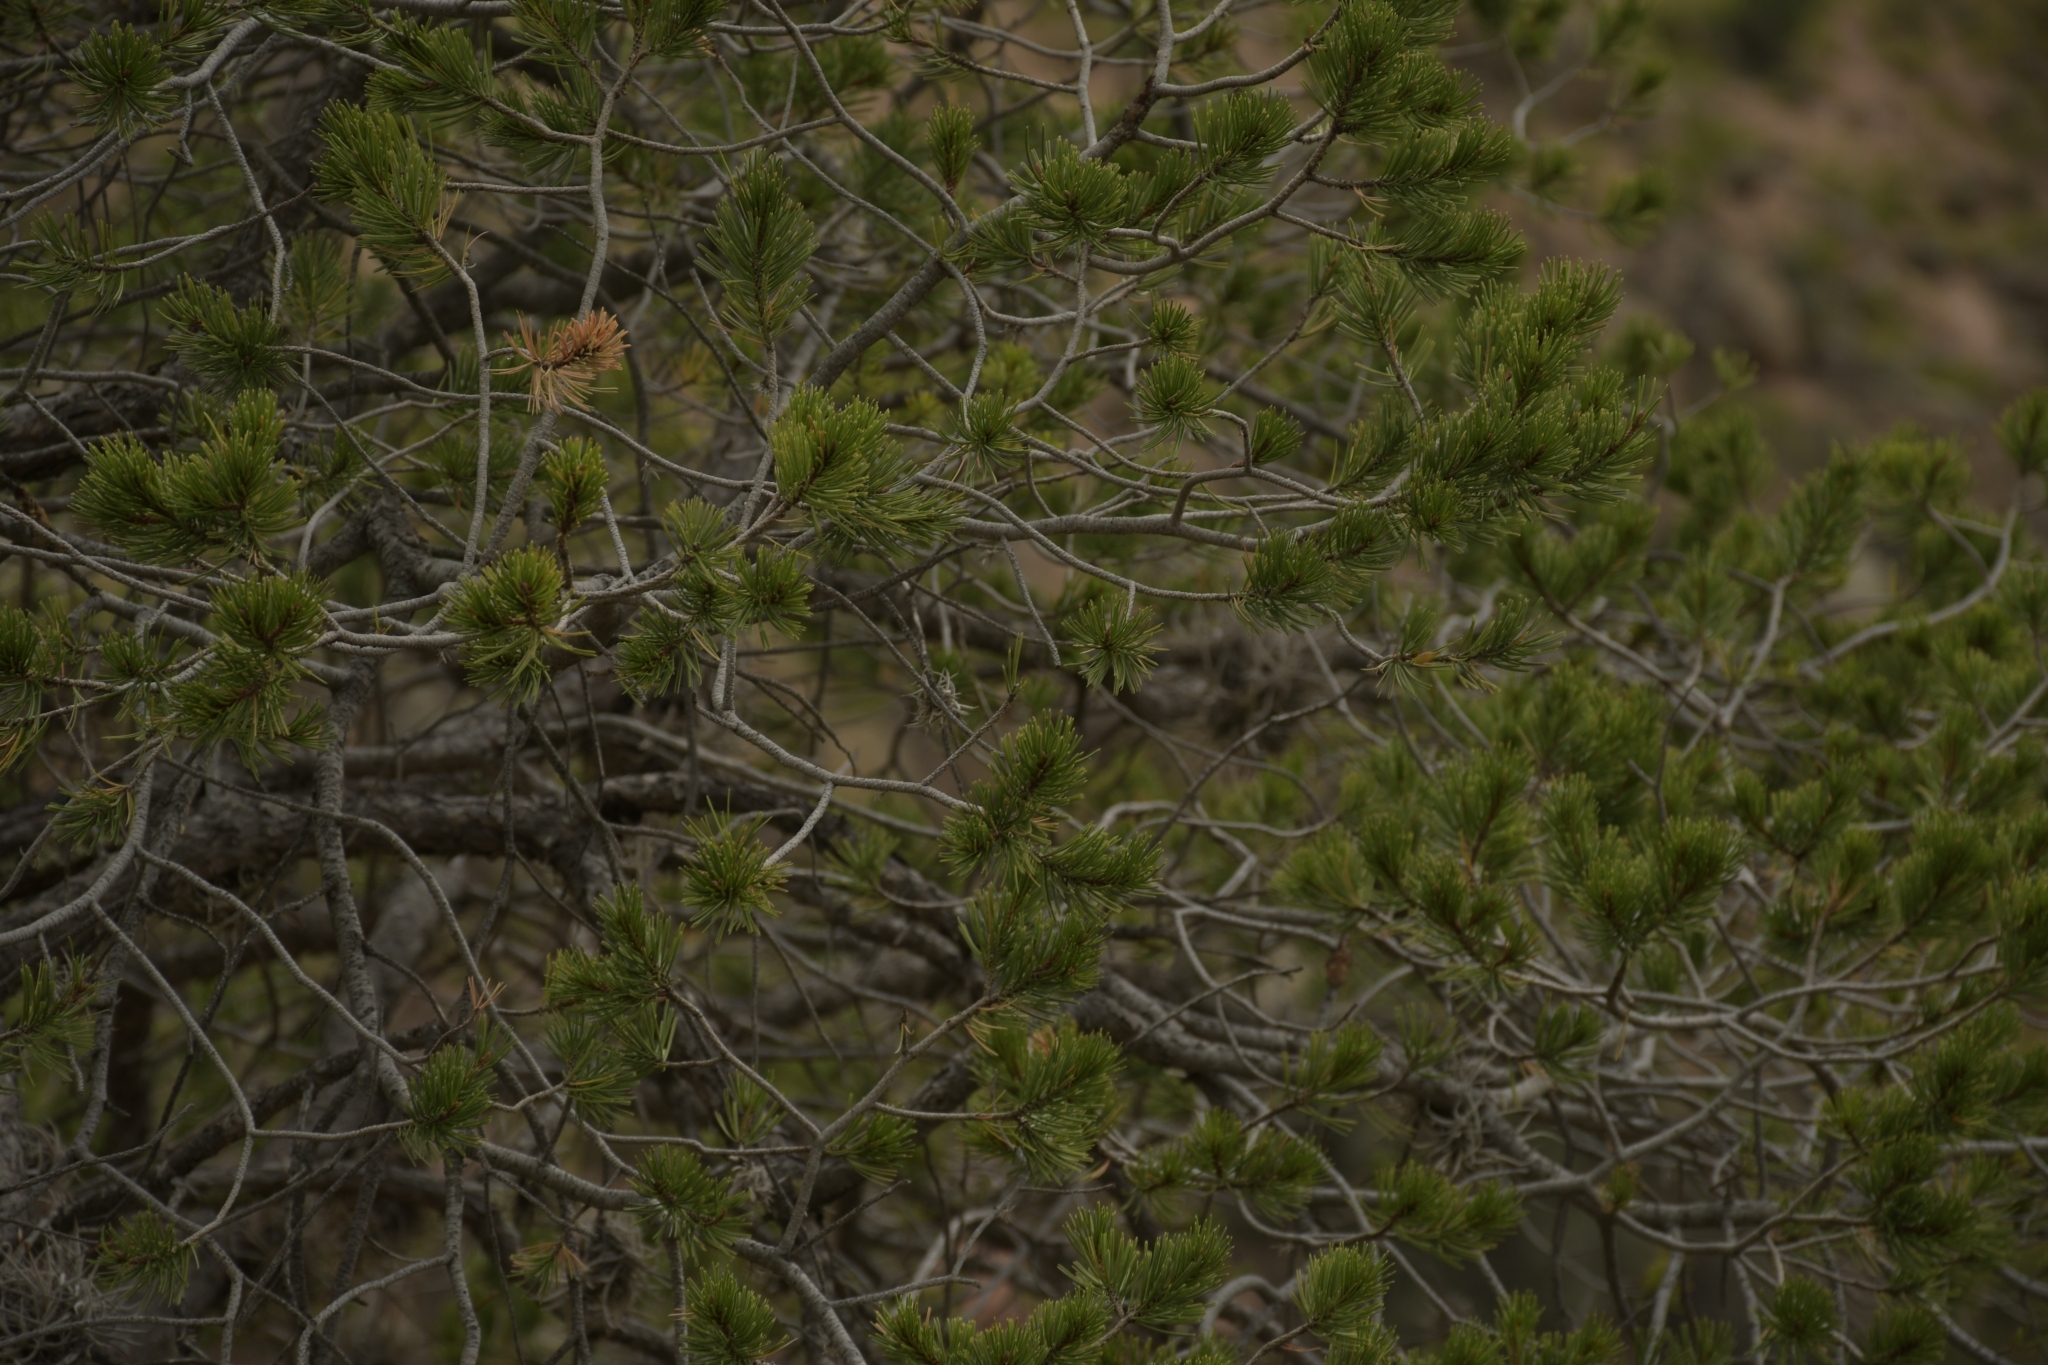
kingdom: Plantae
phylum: Tracheophyta
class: Pinopsida
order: Pinales
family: Pinaceae
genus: Pinus
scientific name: Pinus cembroides
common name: Mexican nut pine
